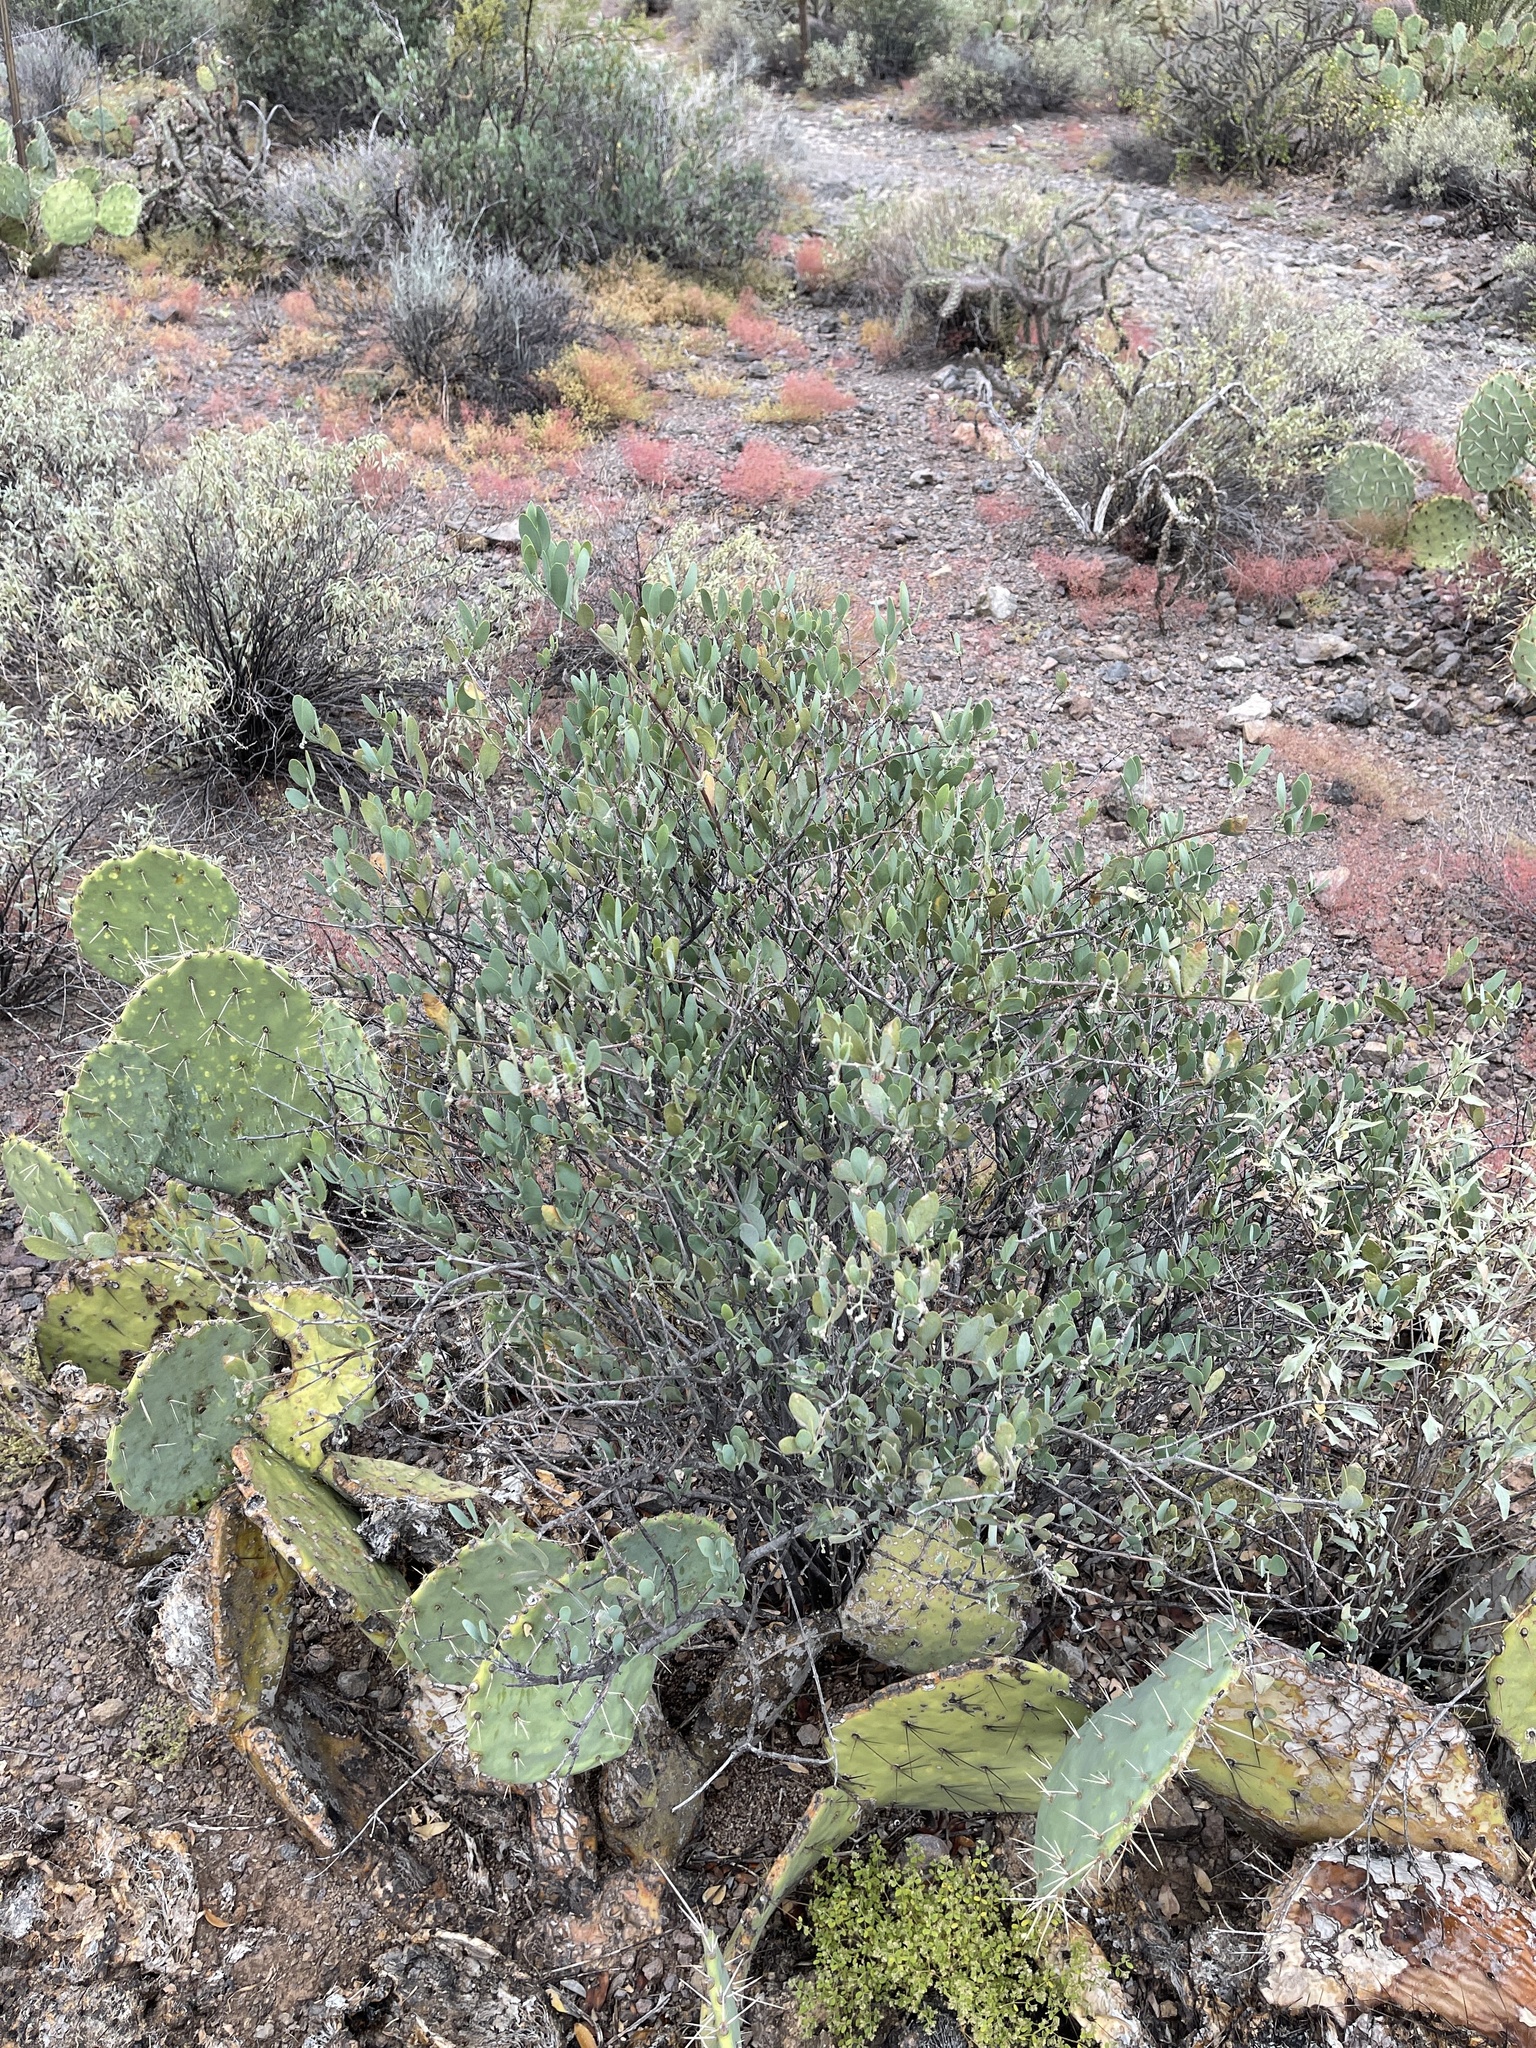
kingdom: Plantae
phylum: Tracheophyta
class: Magnoliopsida
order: Caryophyllales
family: Simmondsiaceae
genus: Simmondsia
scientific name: Simmondsia chinensis
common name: Jojoba
